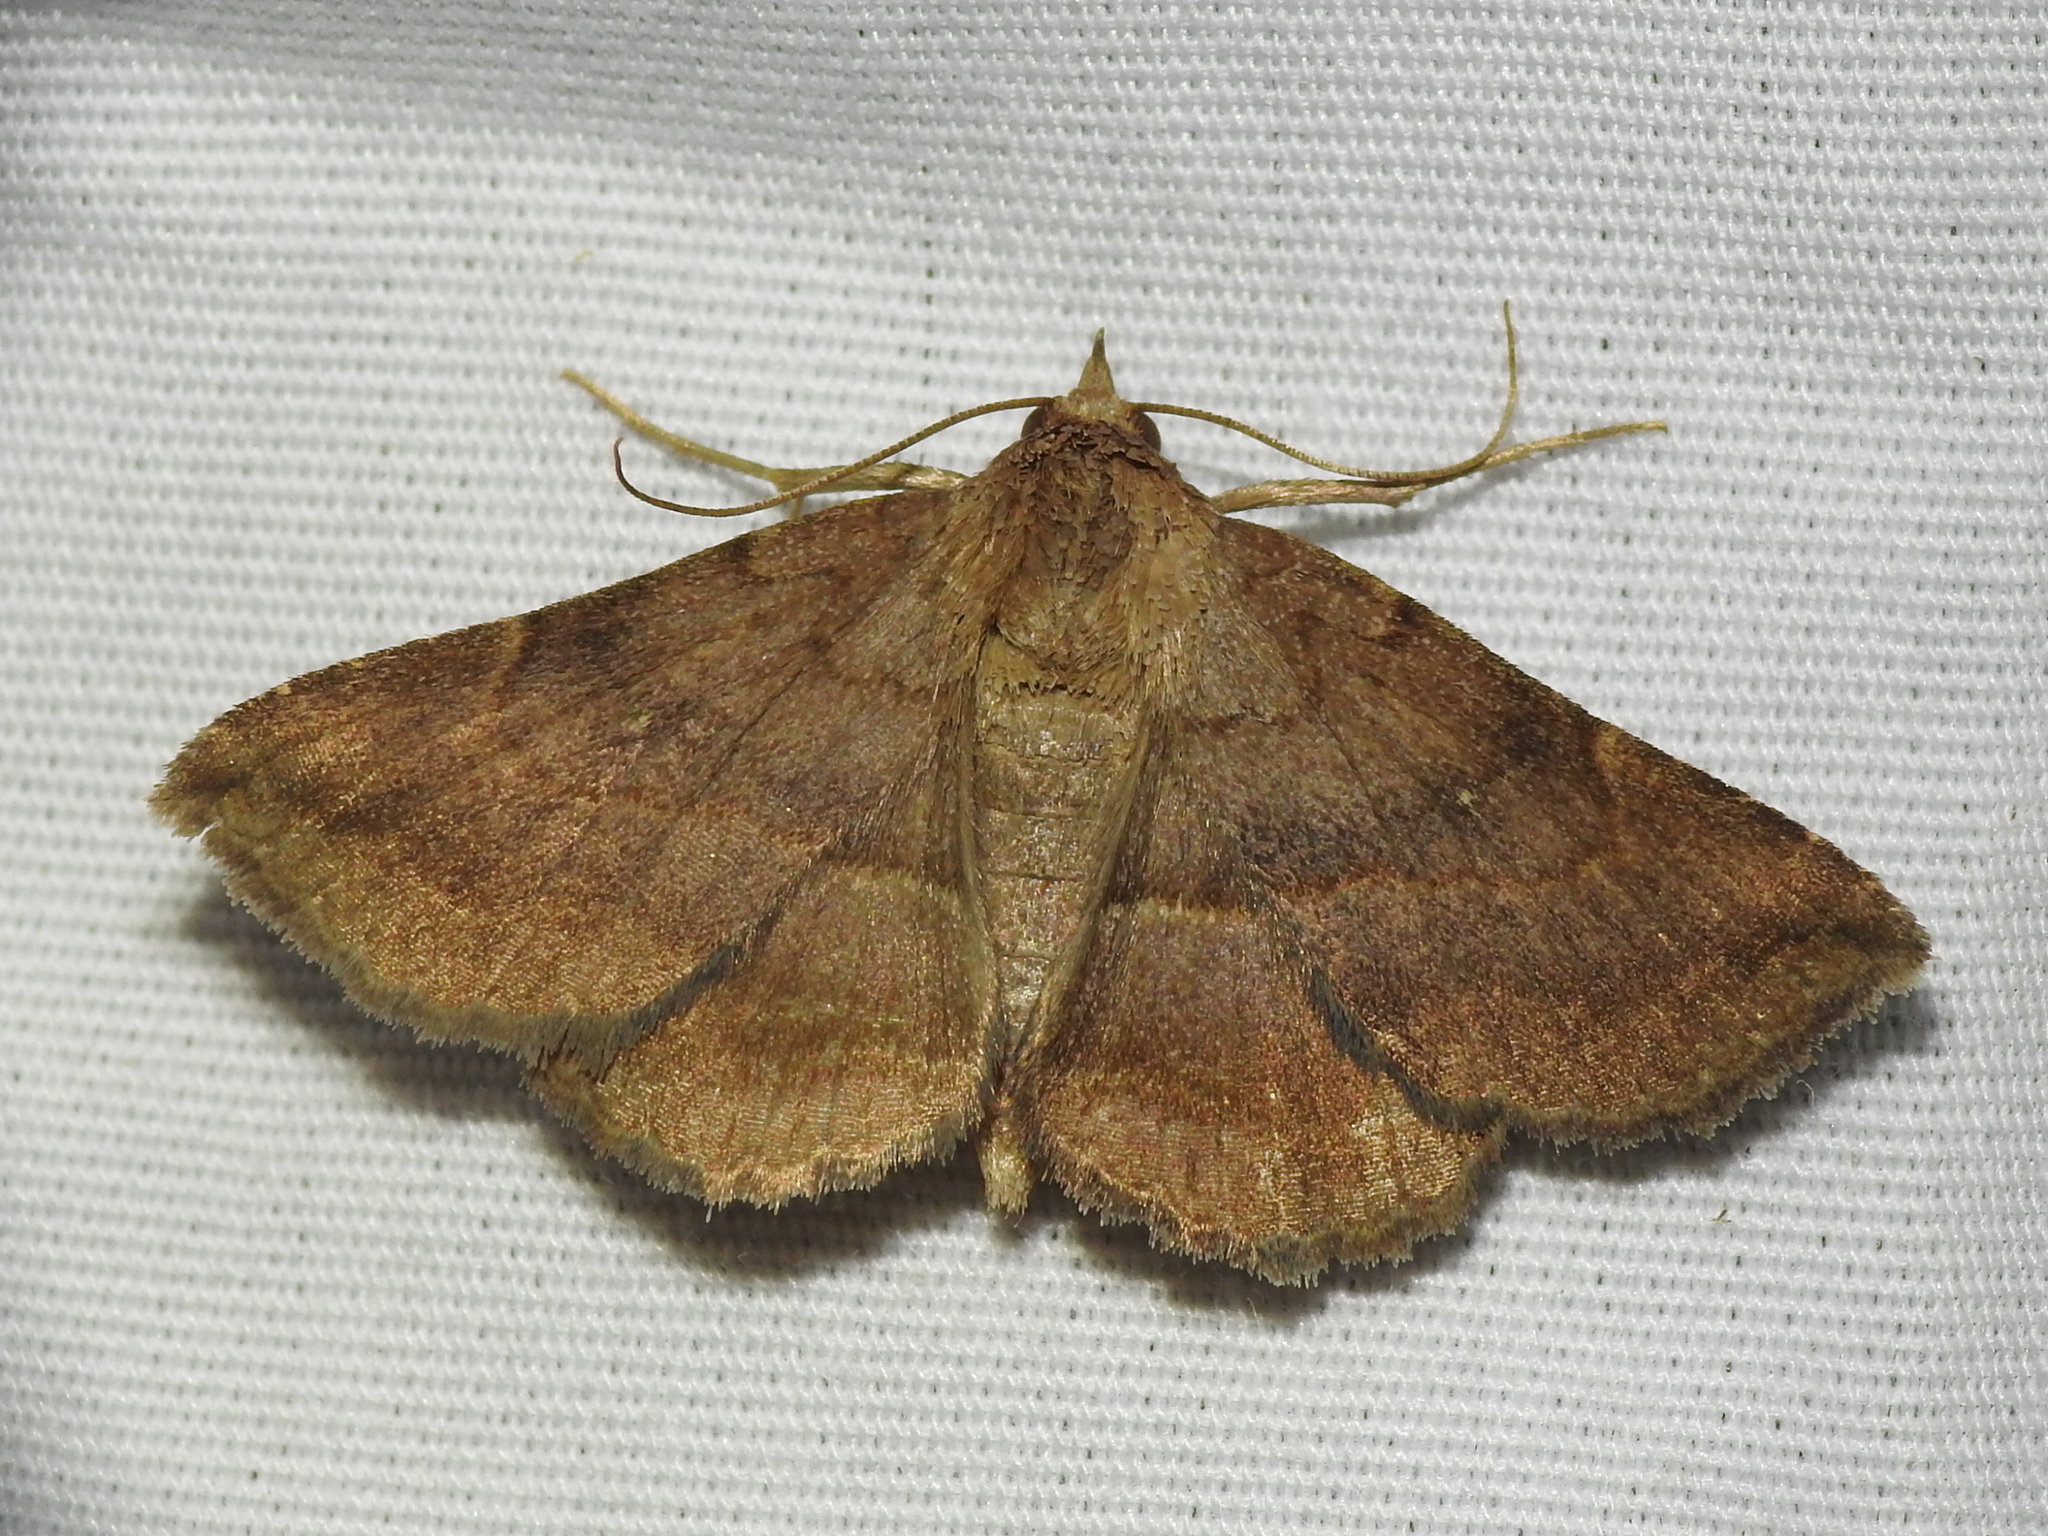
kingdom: Animalia
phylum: Arthropoda
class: Insecta
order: Lepidoptera
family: Erebidae
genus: Lesmone
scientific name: Lesmone detrahens
